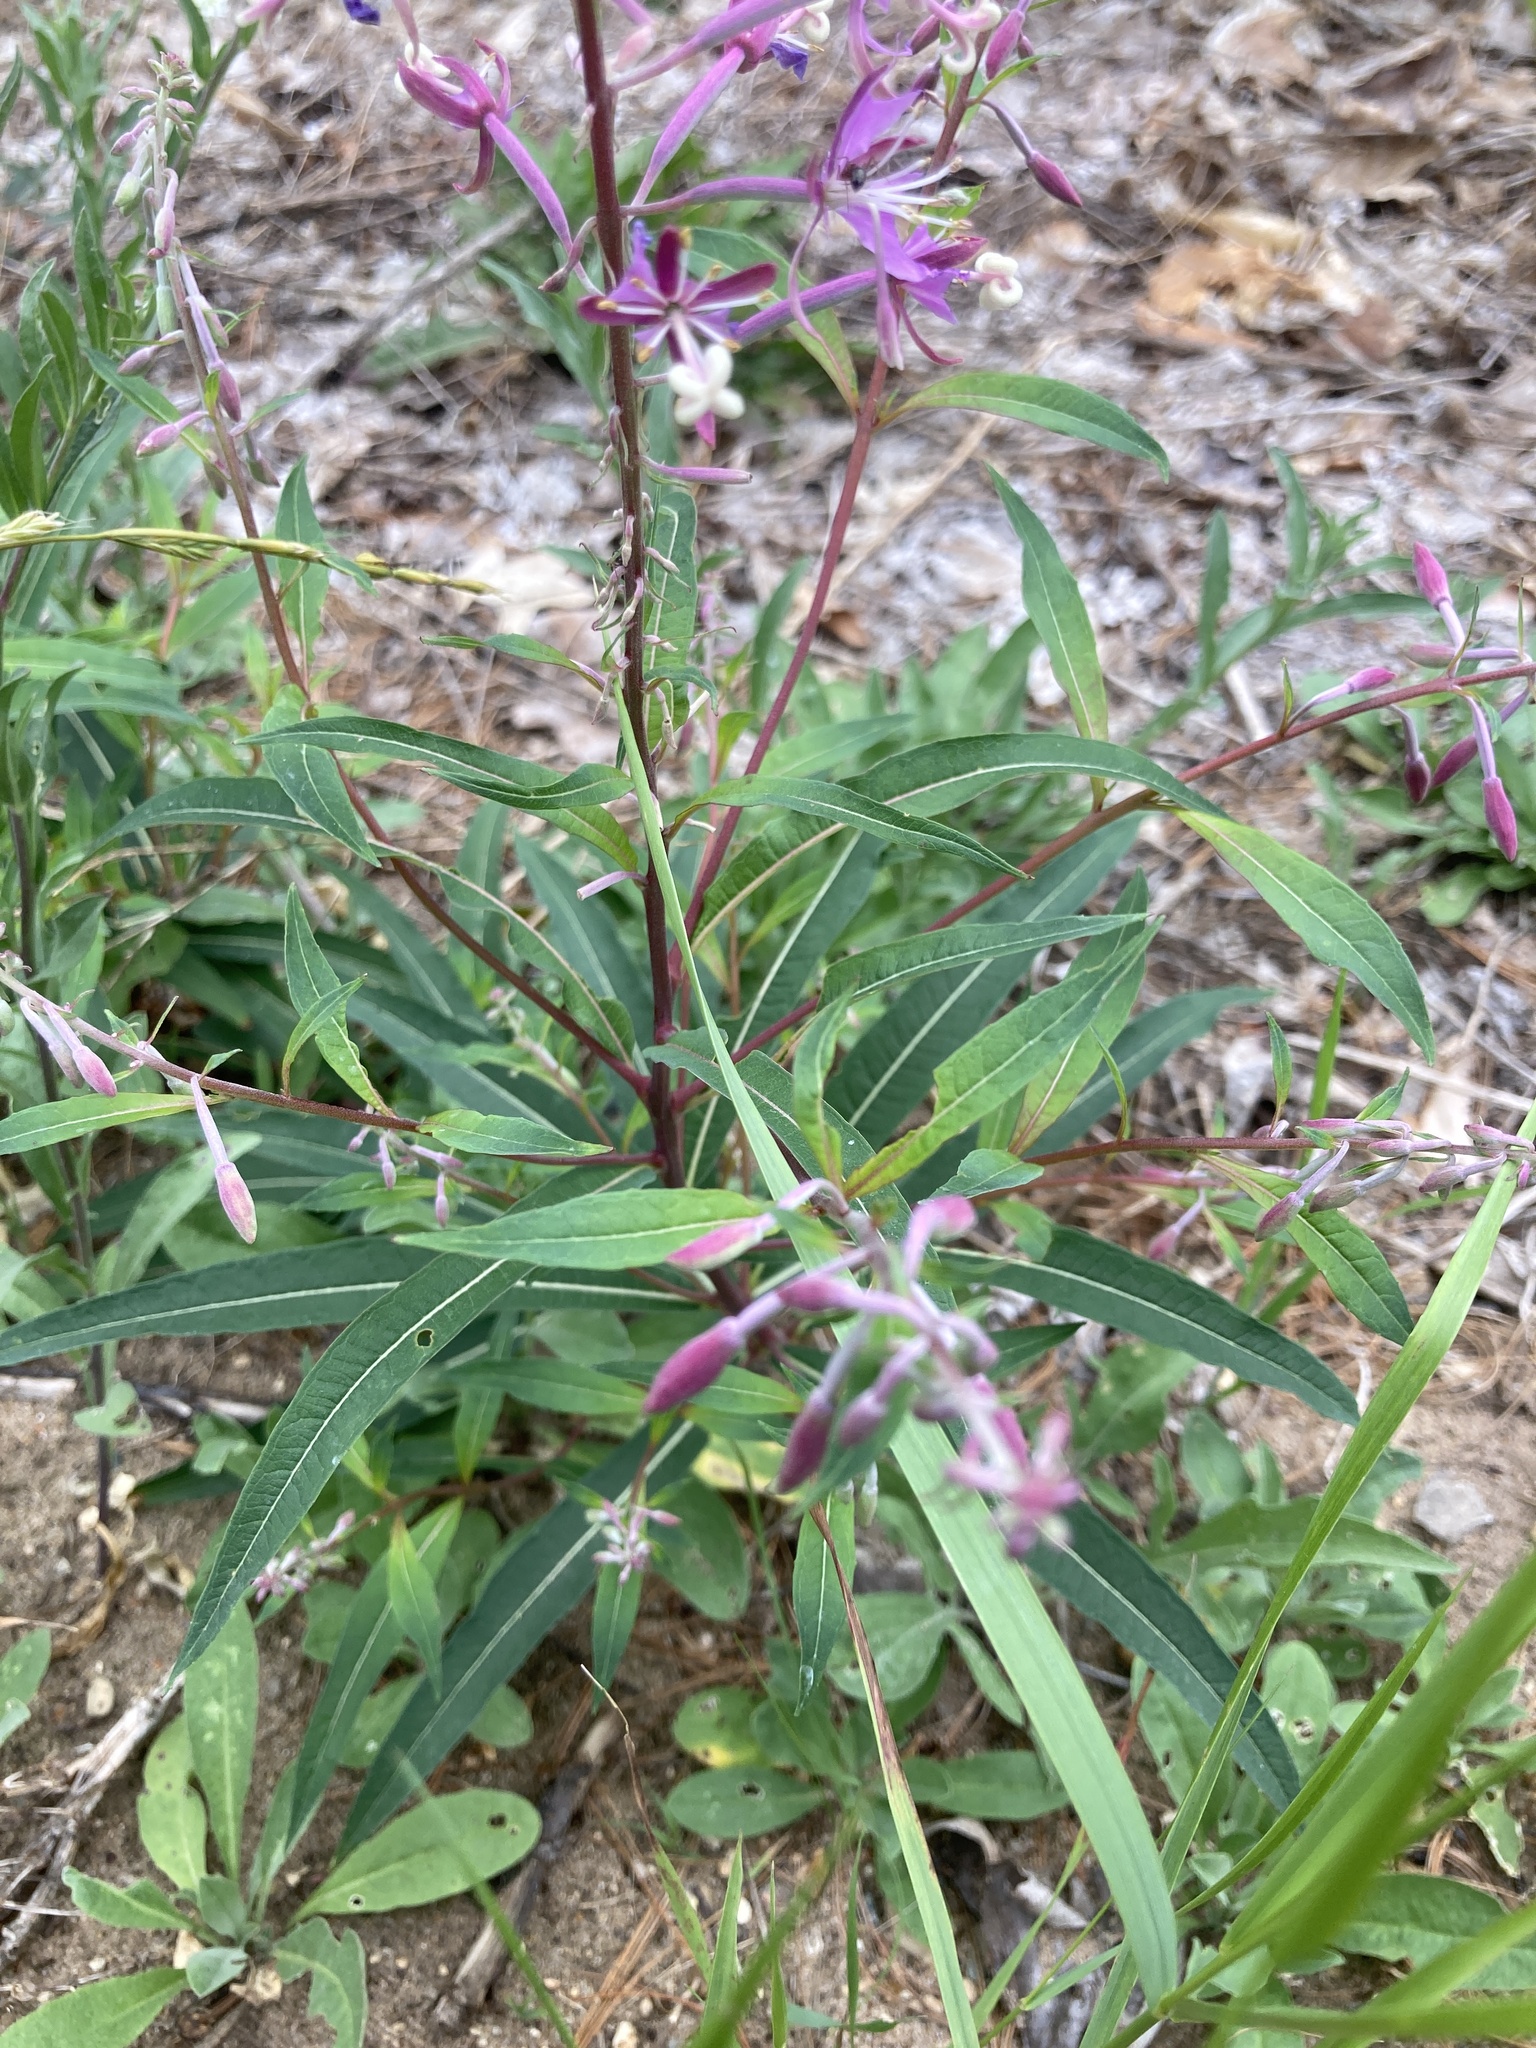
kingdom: Plantae
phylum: Tracheophyta
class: Magnoliopsida
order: Myrtales
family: Onagraceae
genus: Chamaenerion
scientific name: Chamaenerion angustifolium
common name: Fireweed
